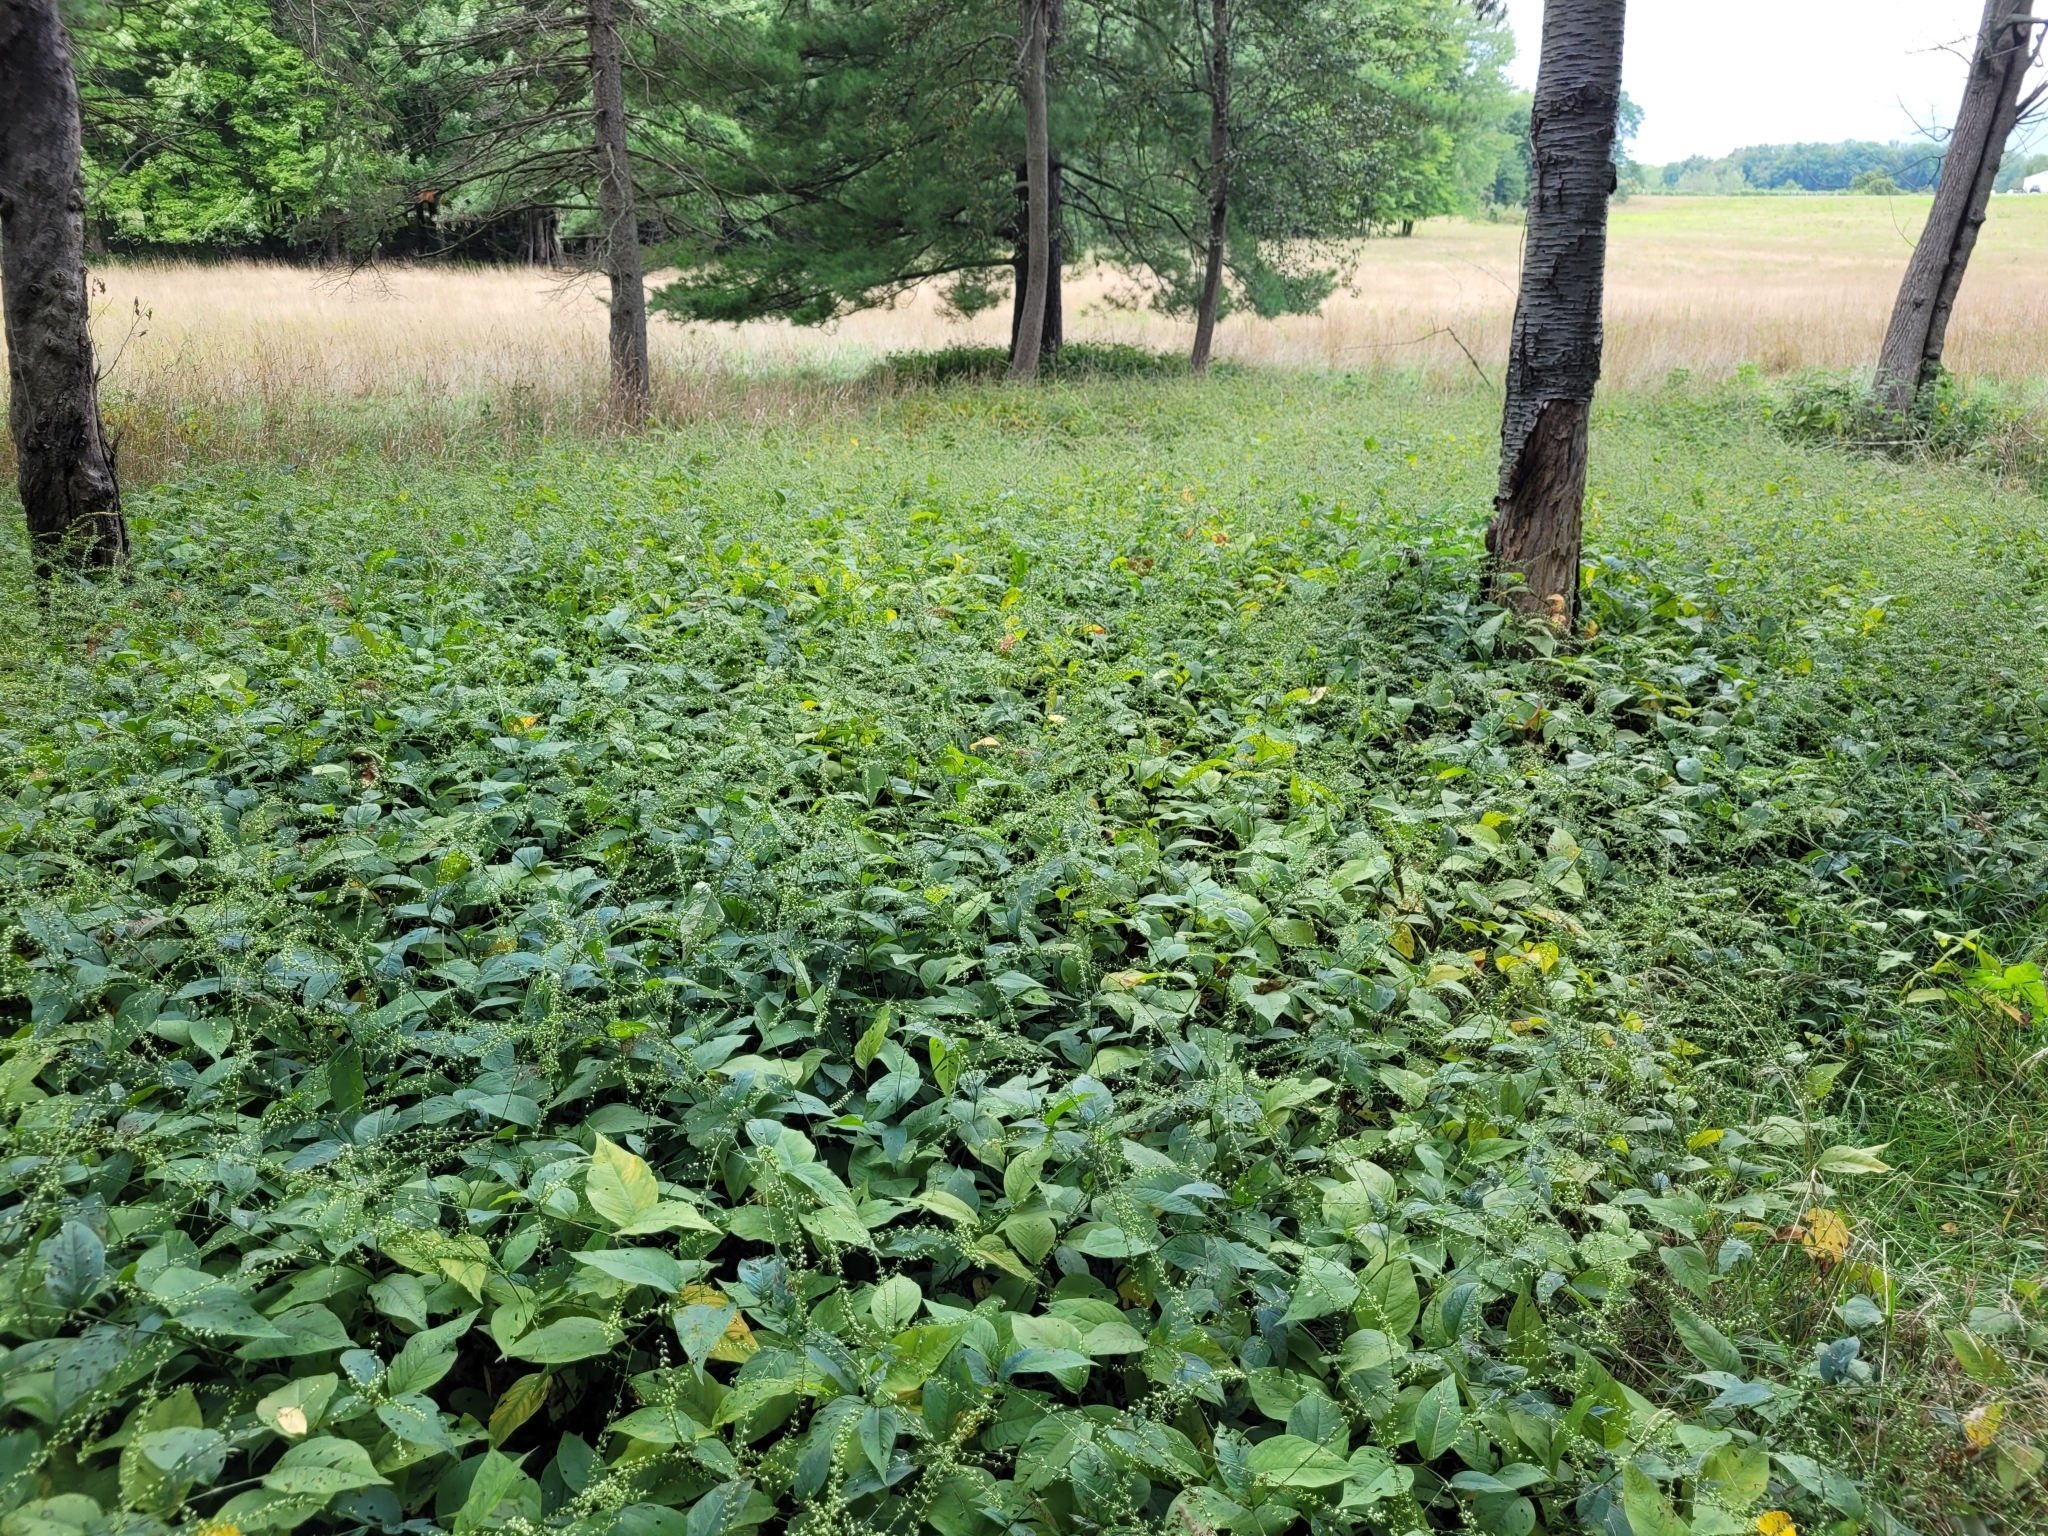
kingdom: Plantae
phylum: Tracheophyta
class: Magnoliopsida
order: Caryophyllales
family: Polygonaceae
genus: Persicaria
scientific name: Persicaria virginiana
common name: Jumpseed
